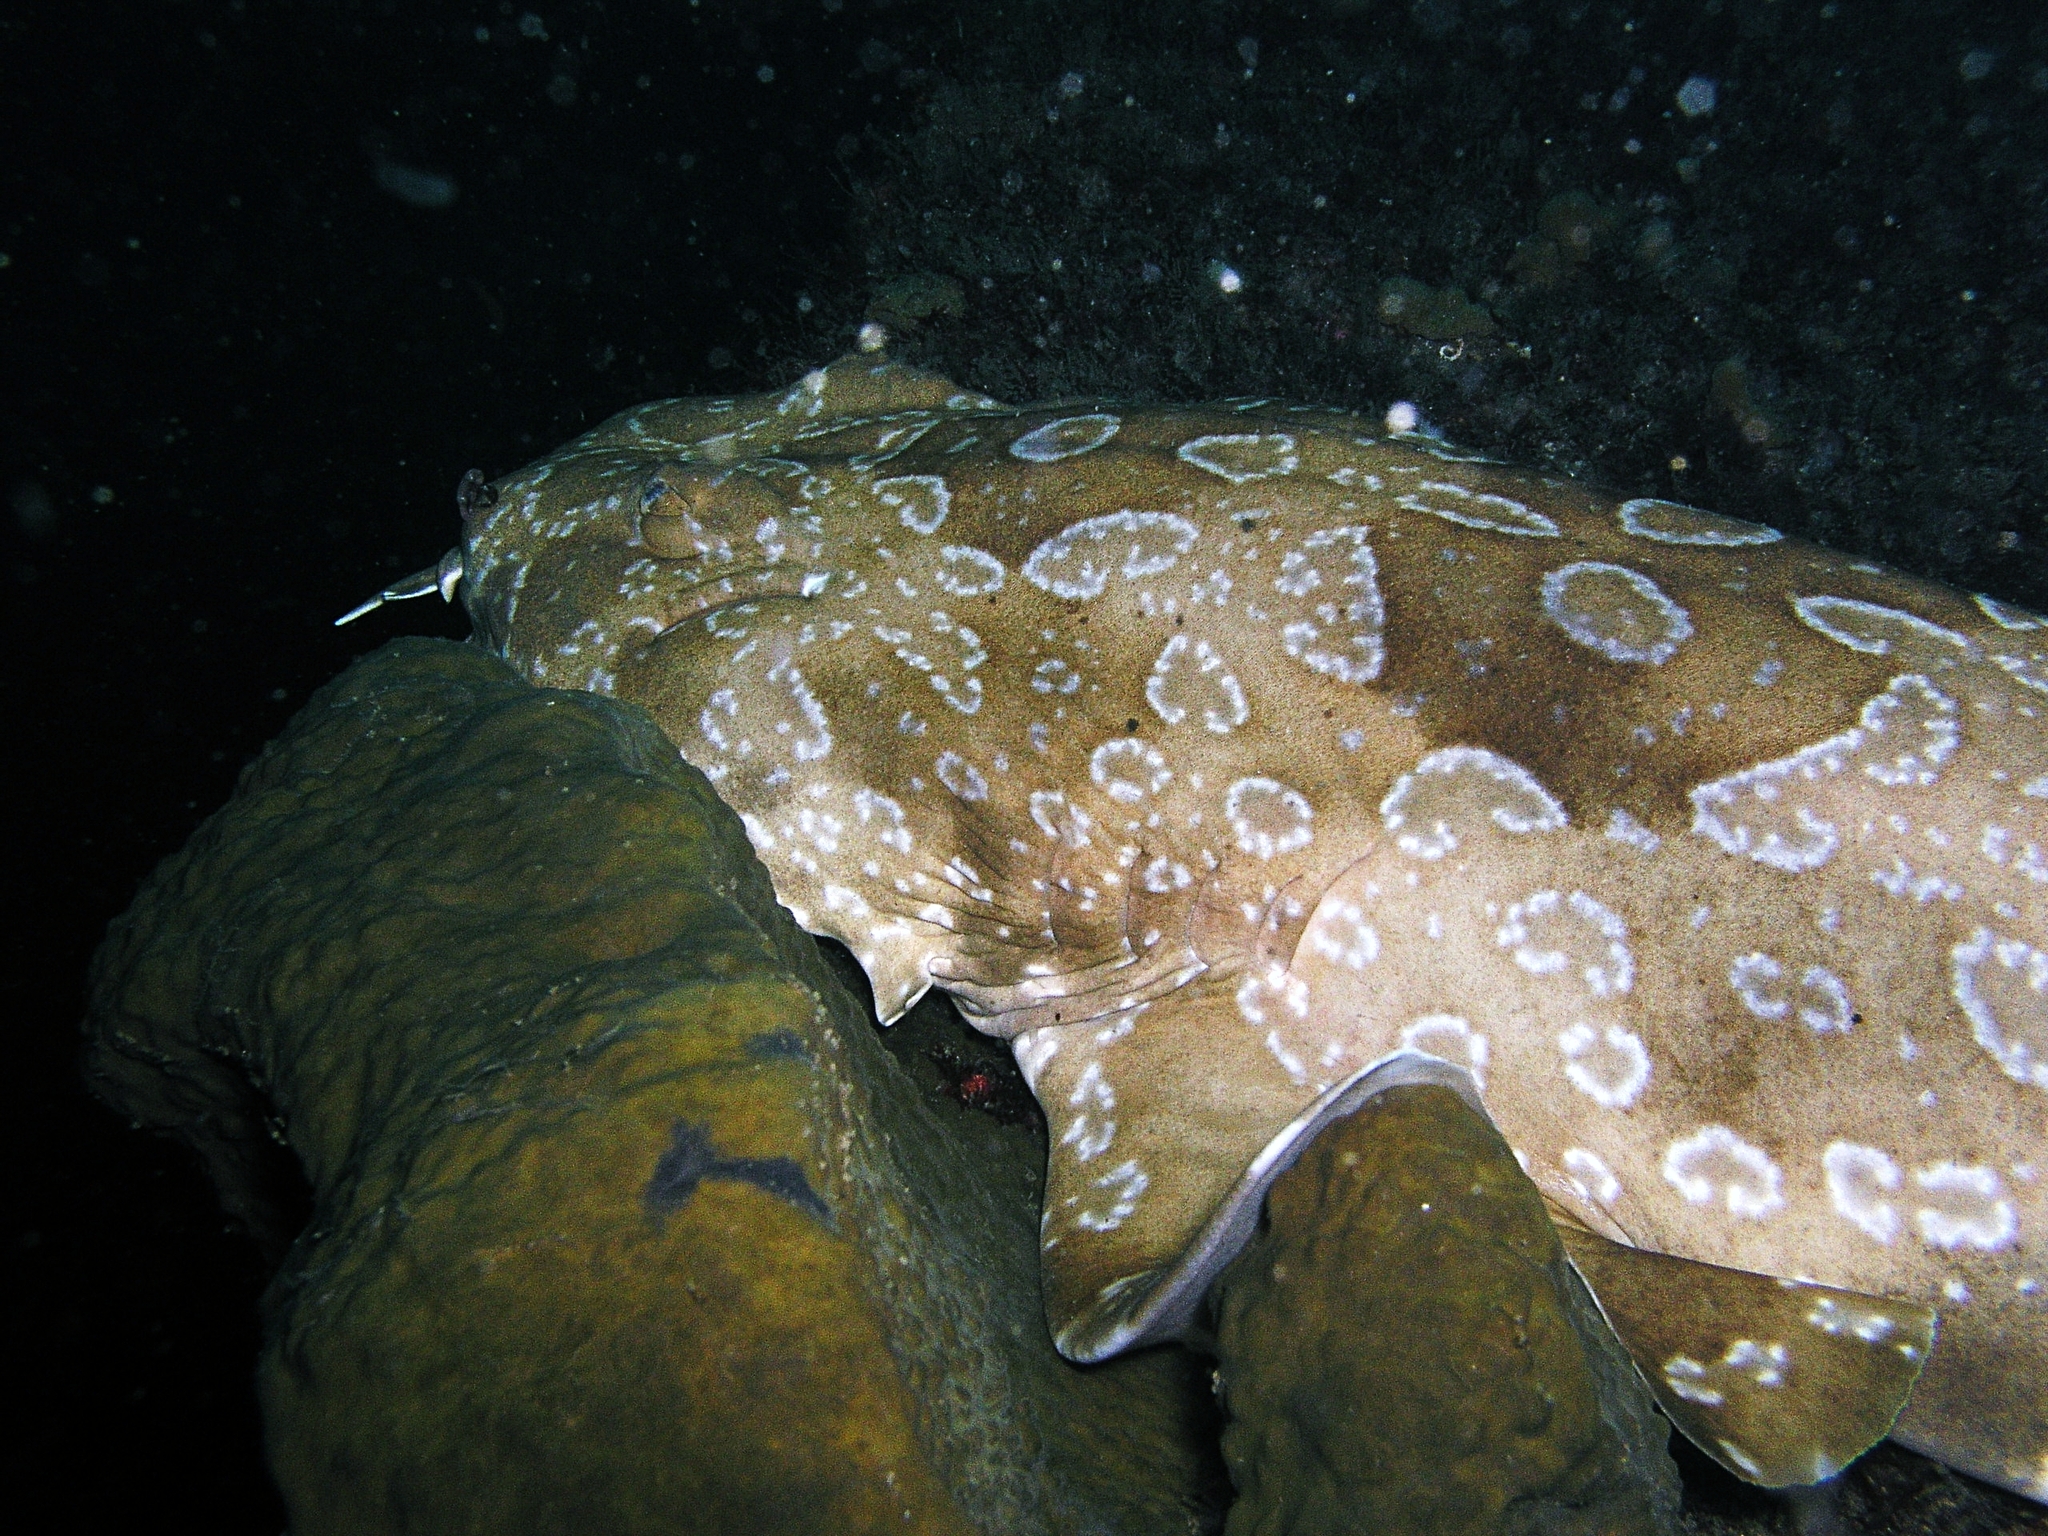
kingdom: Animalia
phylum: Chordata
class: Elasmobranchii
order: Orectolobiformes
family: Orectolobidae
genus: Orectolobus
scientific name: Orectolobus maculatus
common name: Spotted wobbegong
